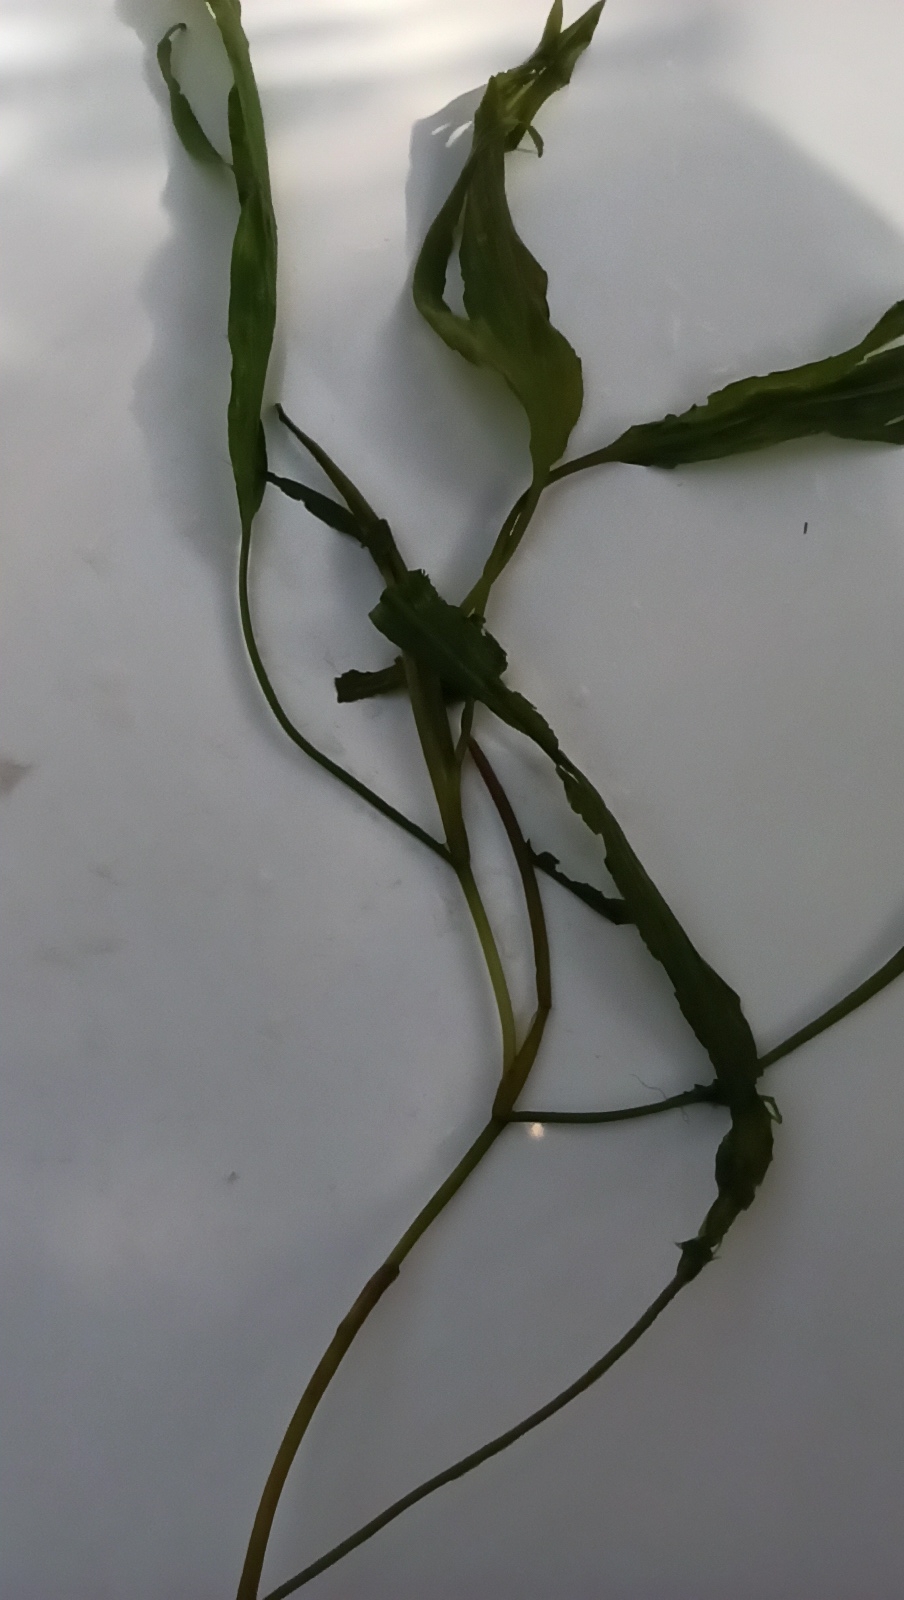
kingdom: Plantae
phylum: Tracheophyta
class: Liliopsida
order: Alismatales
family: Potamogetonaceae
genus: Potamogeton
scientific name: Potamogeton nodosus
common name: Loddon pondweed
